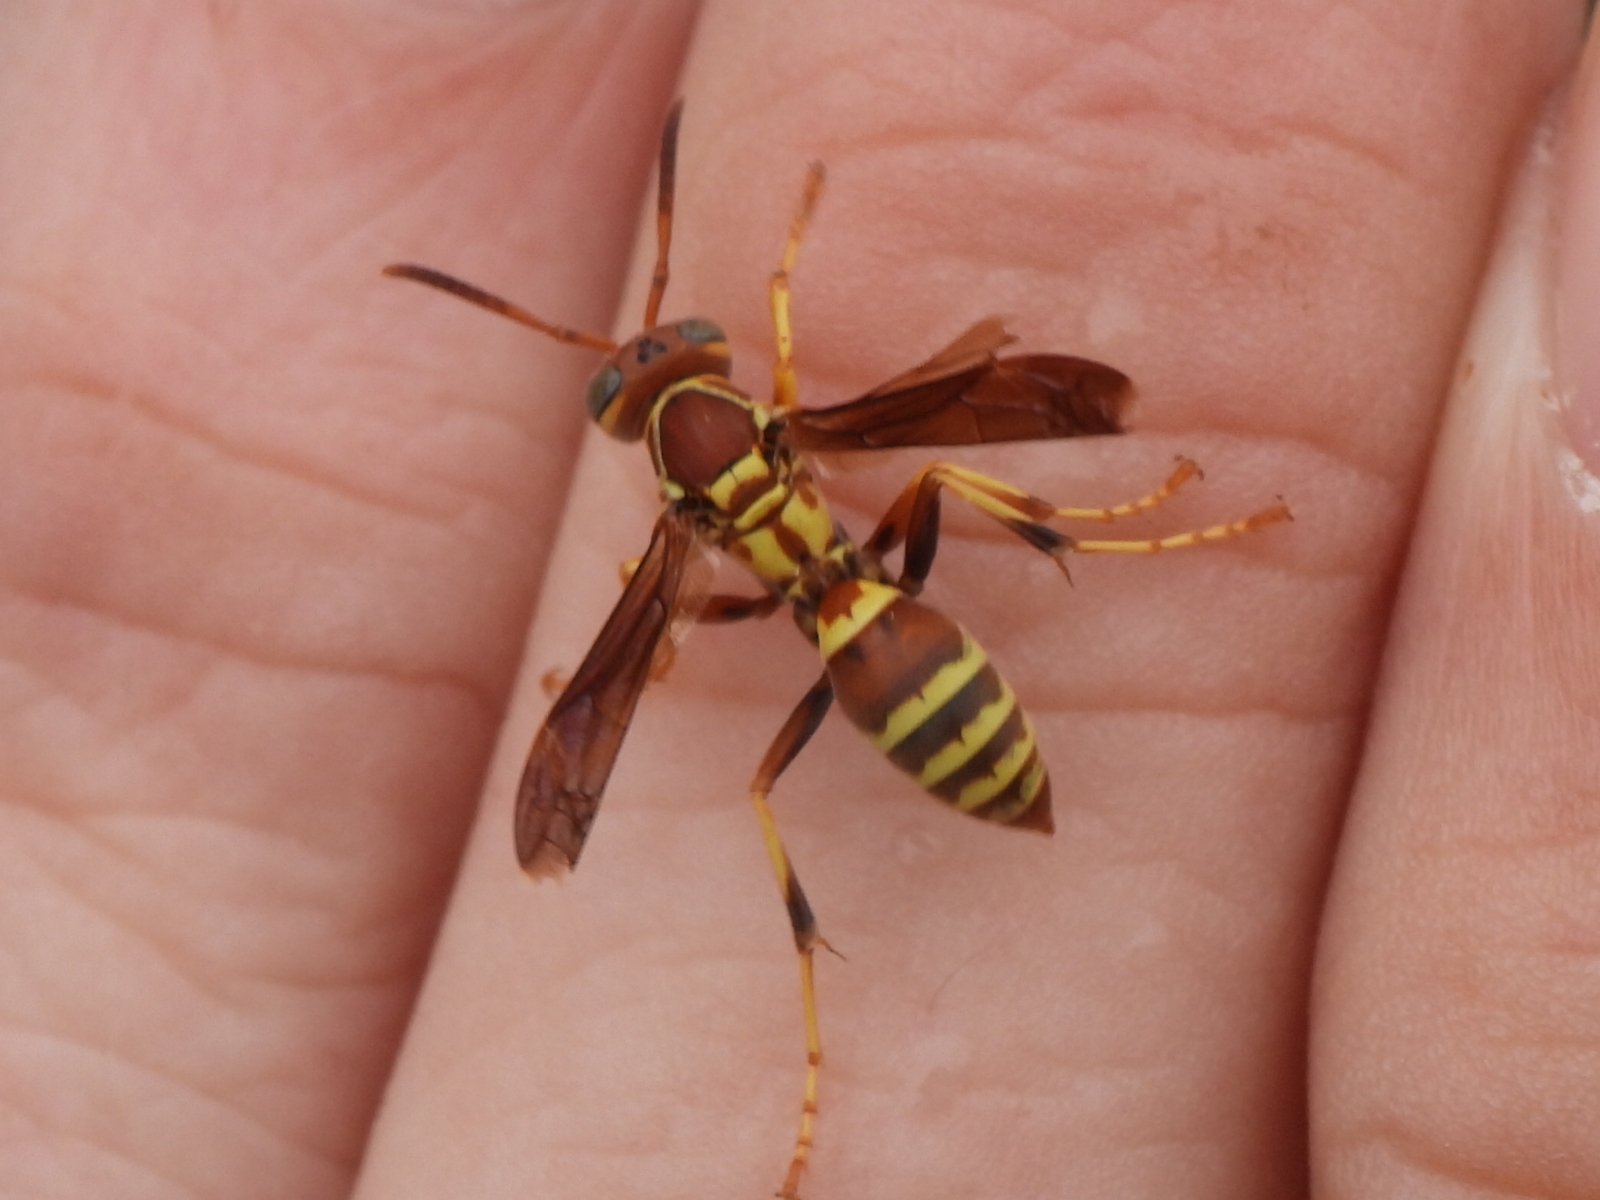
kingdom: Animalia
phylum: Arthropoda
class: Insecta
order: Hymenoptera
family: Eumenidae
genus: Polistes
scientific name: Polistes dorsalis
